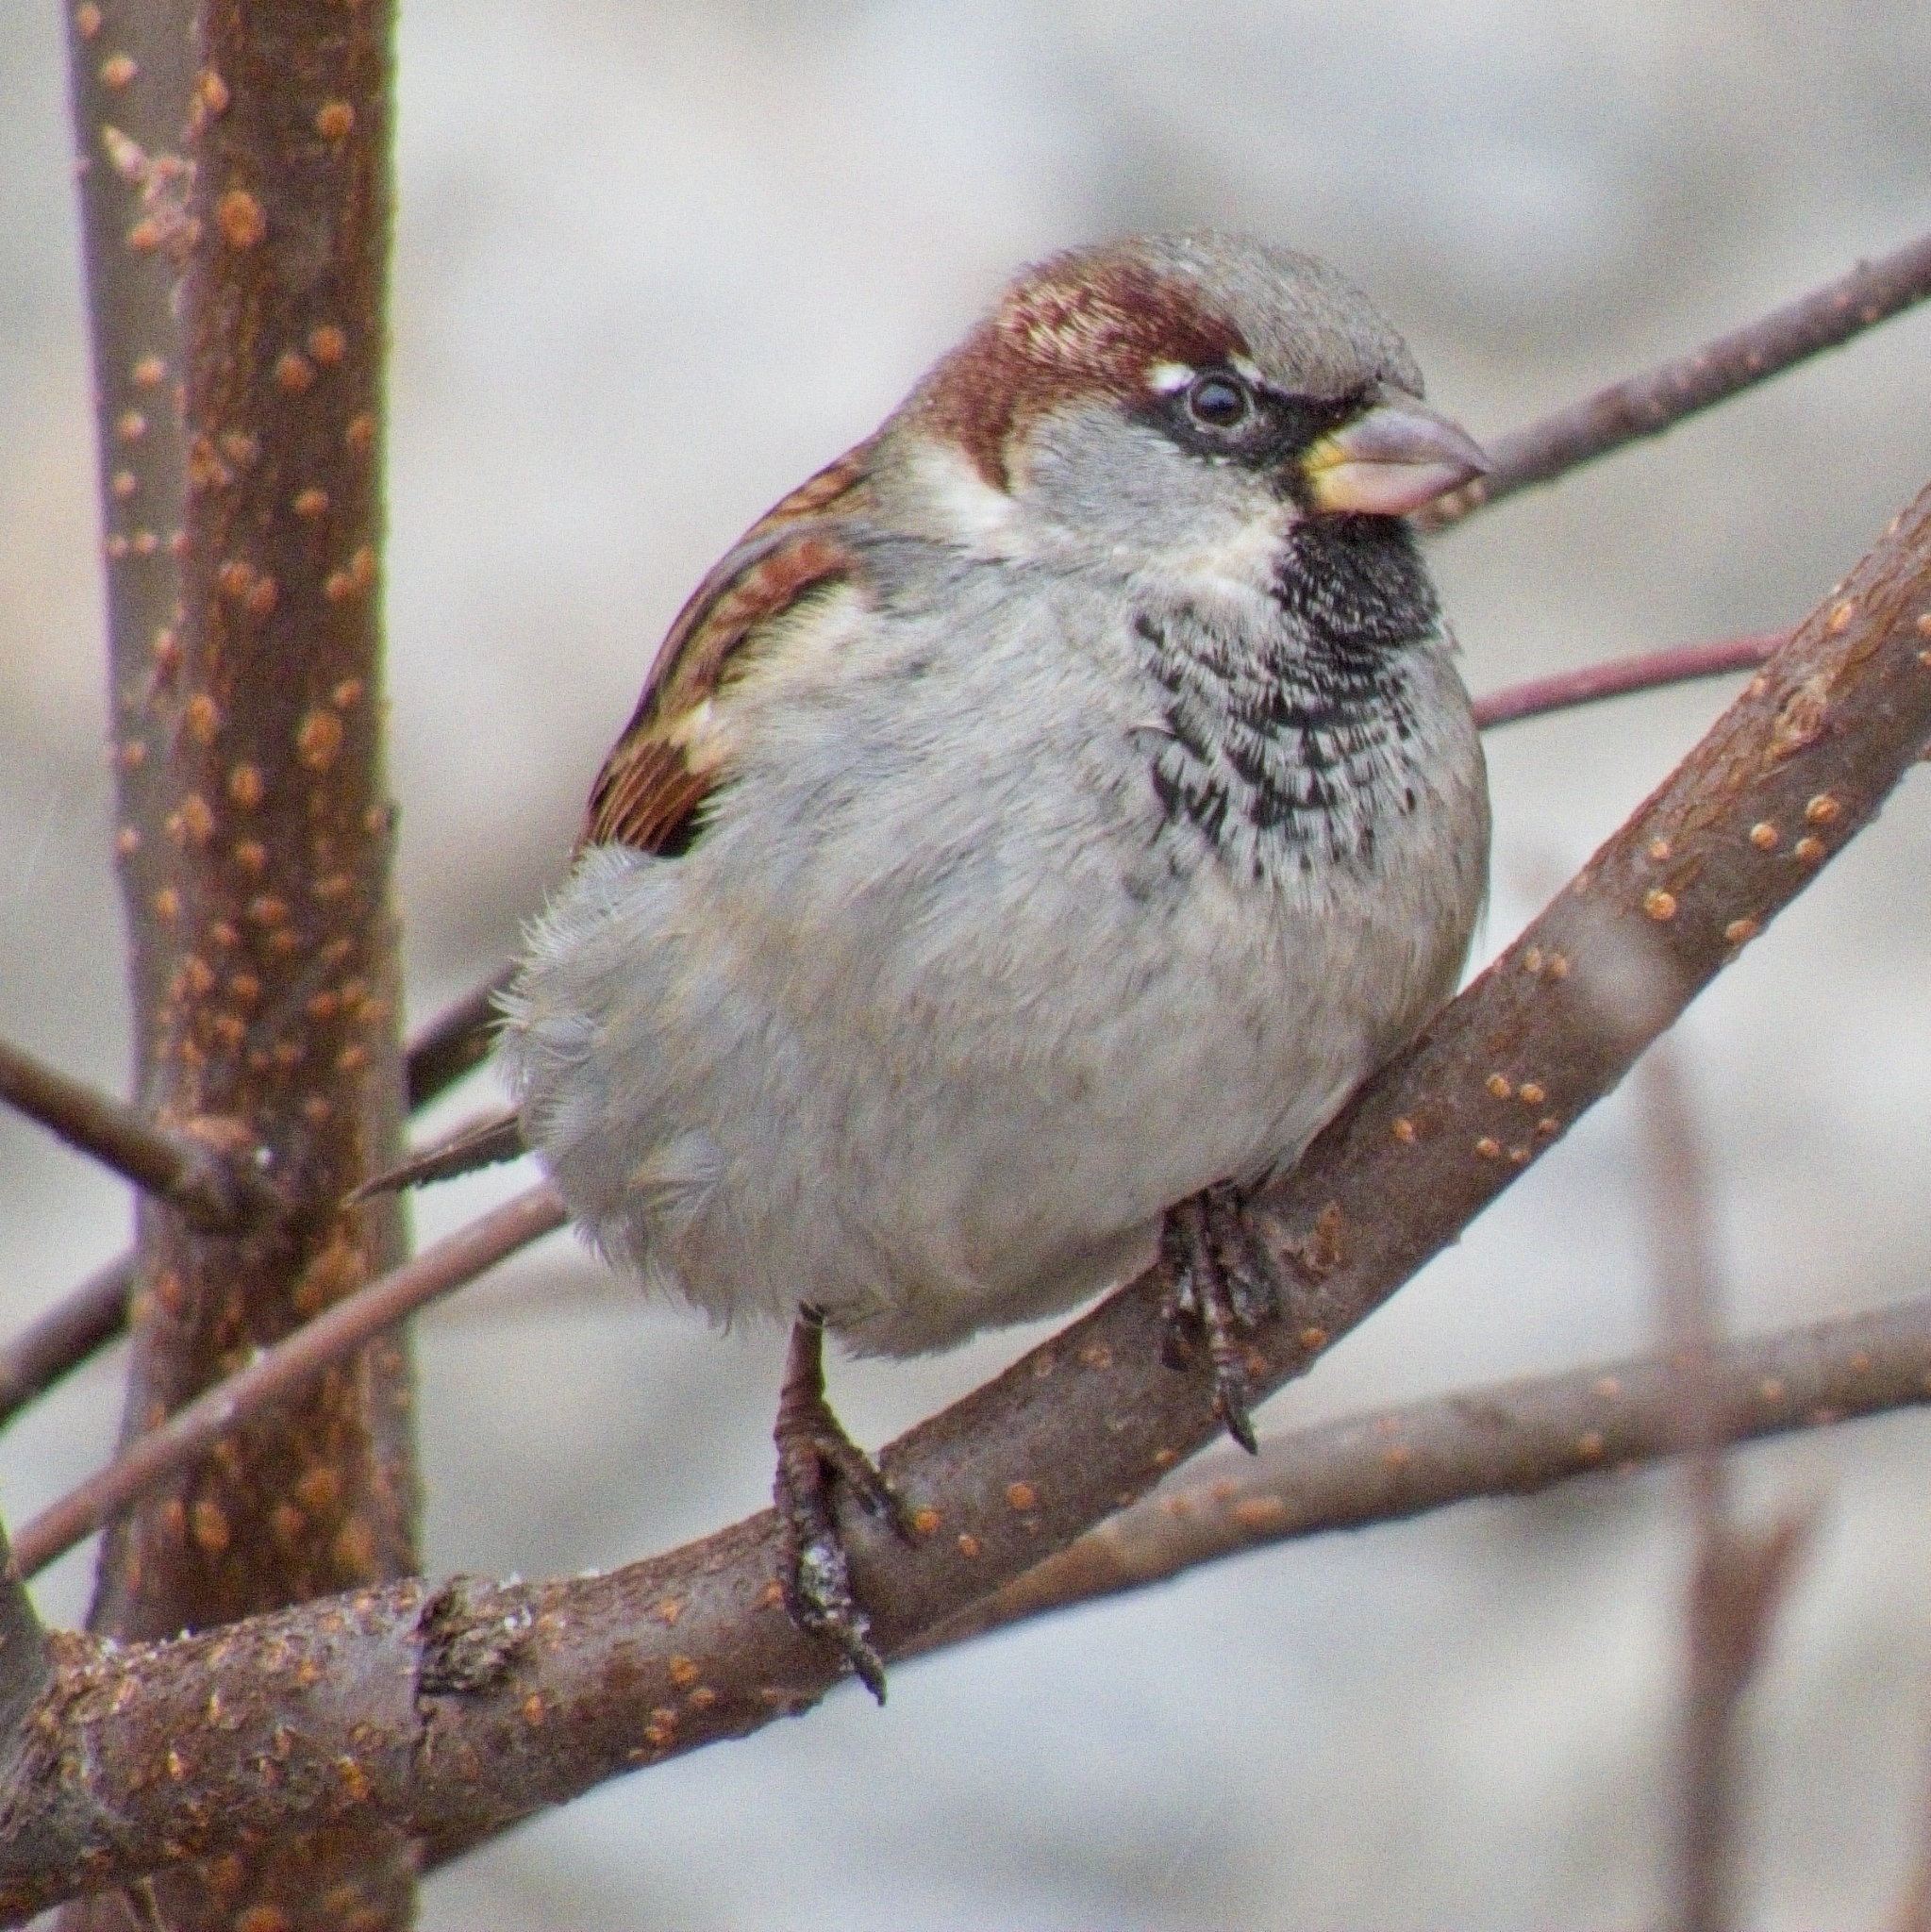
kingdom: Animalia
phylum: Chordata
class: Aves
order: Passeriformes
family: Passeridae
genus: Passer
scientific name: Passer domesticus
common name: House sparrow
